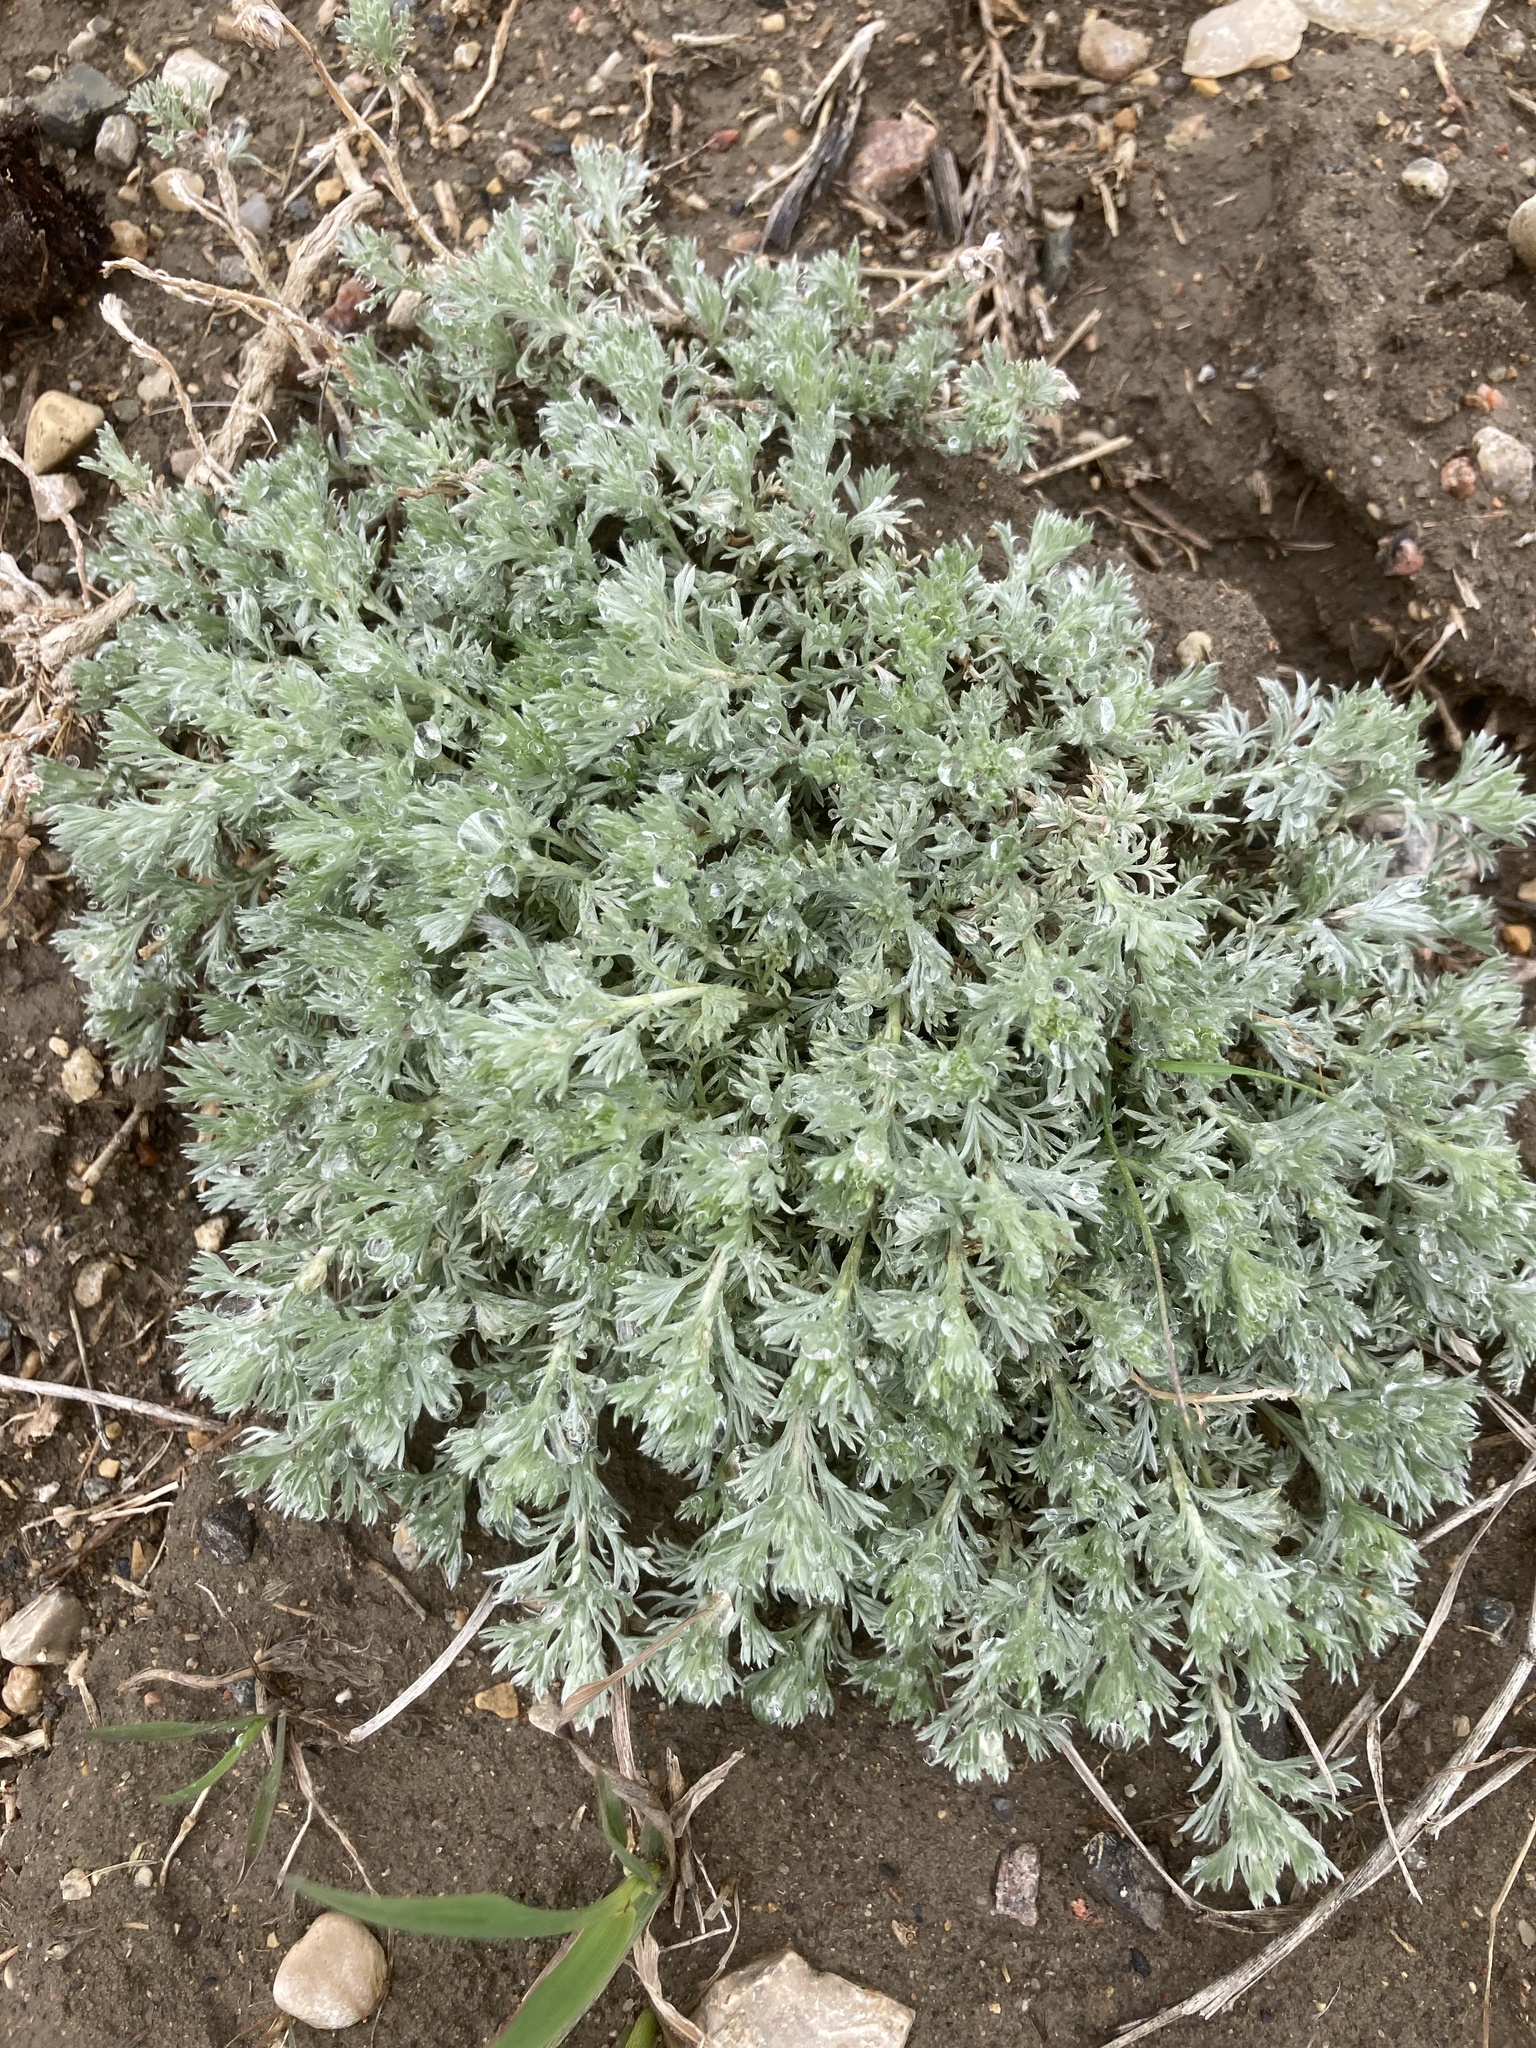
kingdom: Plantae
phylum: Tracheophyta
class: Magnoliopsida
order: Asterales
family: Asteraceae
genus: Artemisia
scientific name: Artemisia frigida
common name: Prairie sagewort
